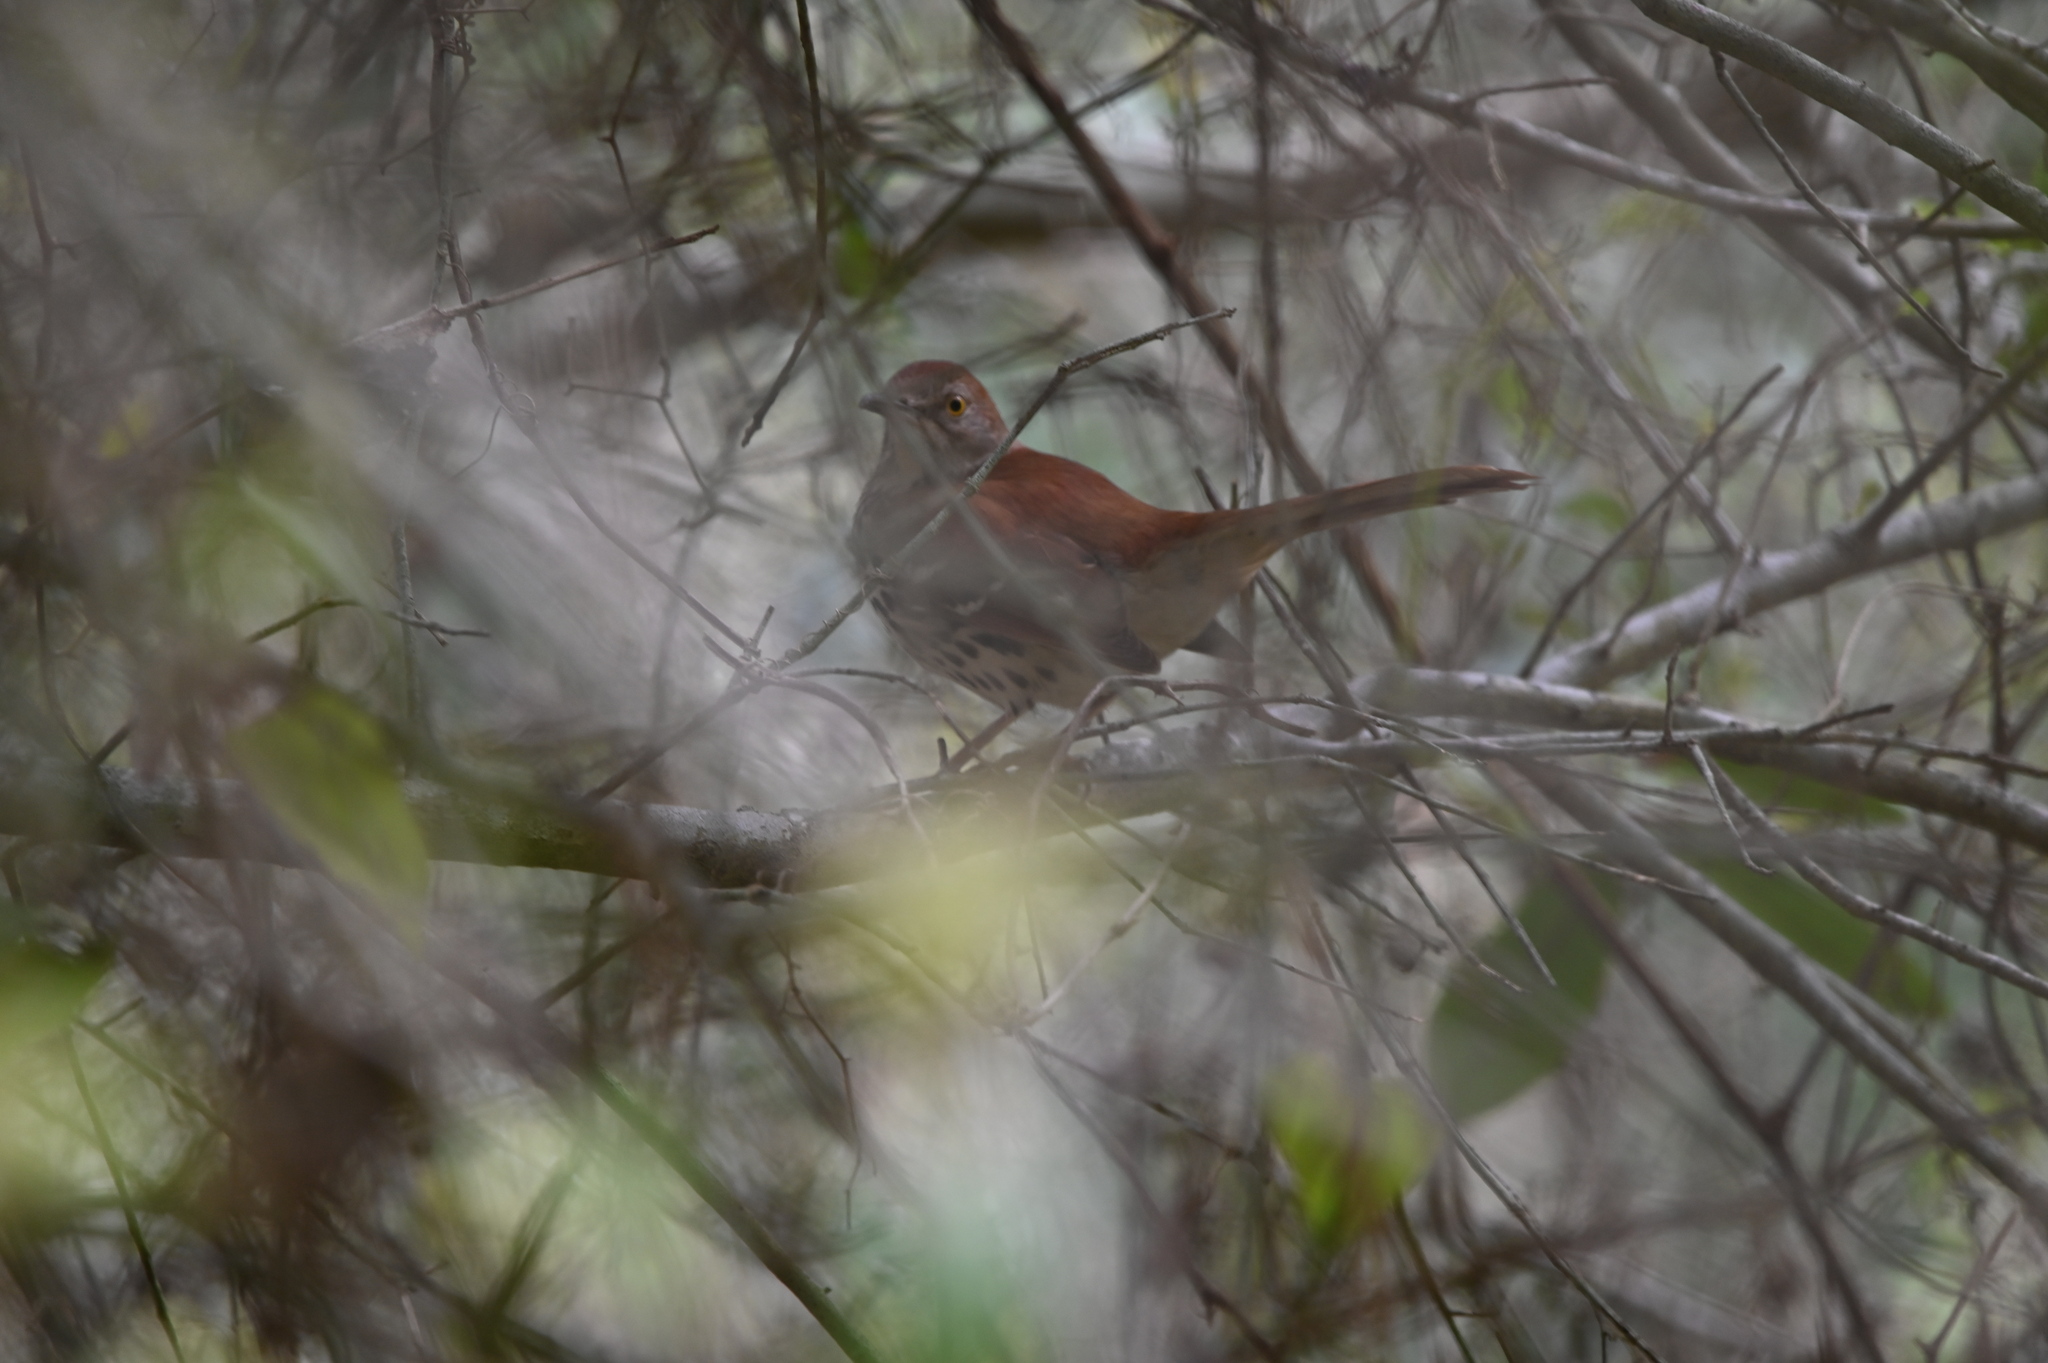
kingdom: Animalia
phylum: Chordata
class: Aves
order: Passeriformes
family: Mimidae
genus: Toxostoma
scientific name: Toxostoma rufum
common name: Brown thrasher
